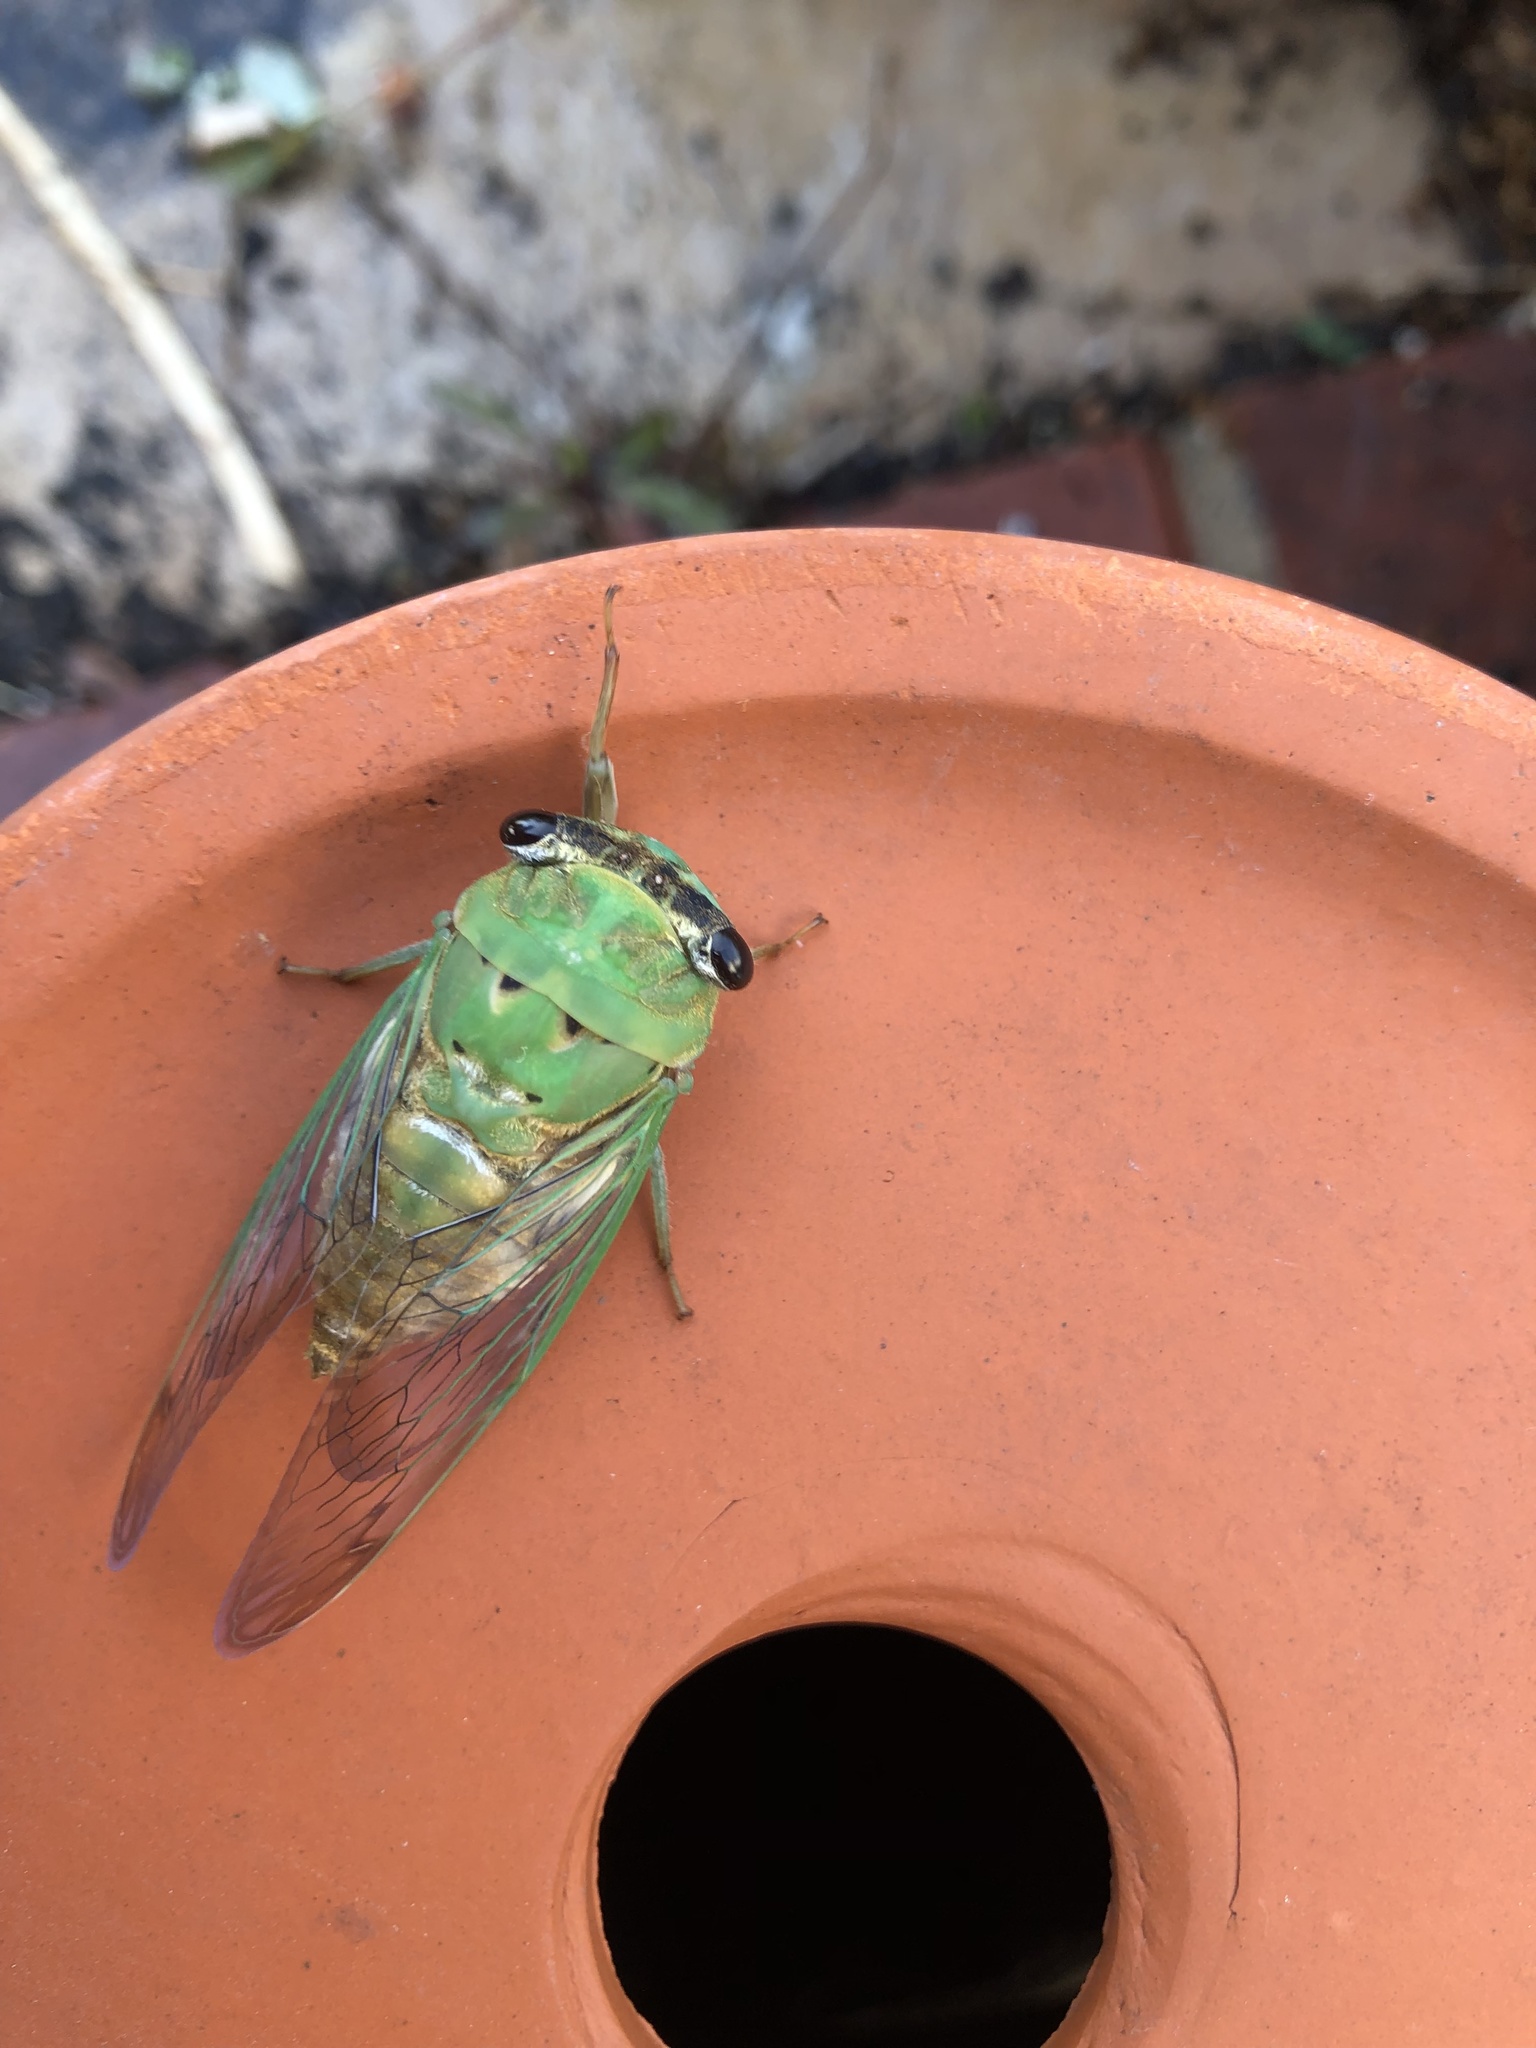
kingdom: Animalia
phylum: Arthropoda
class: Insecta
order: Hemiptera
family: Cicadidae
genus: Neotibicen
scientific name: Neotibicen superbus
